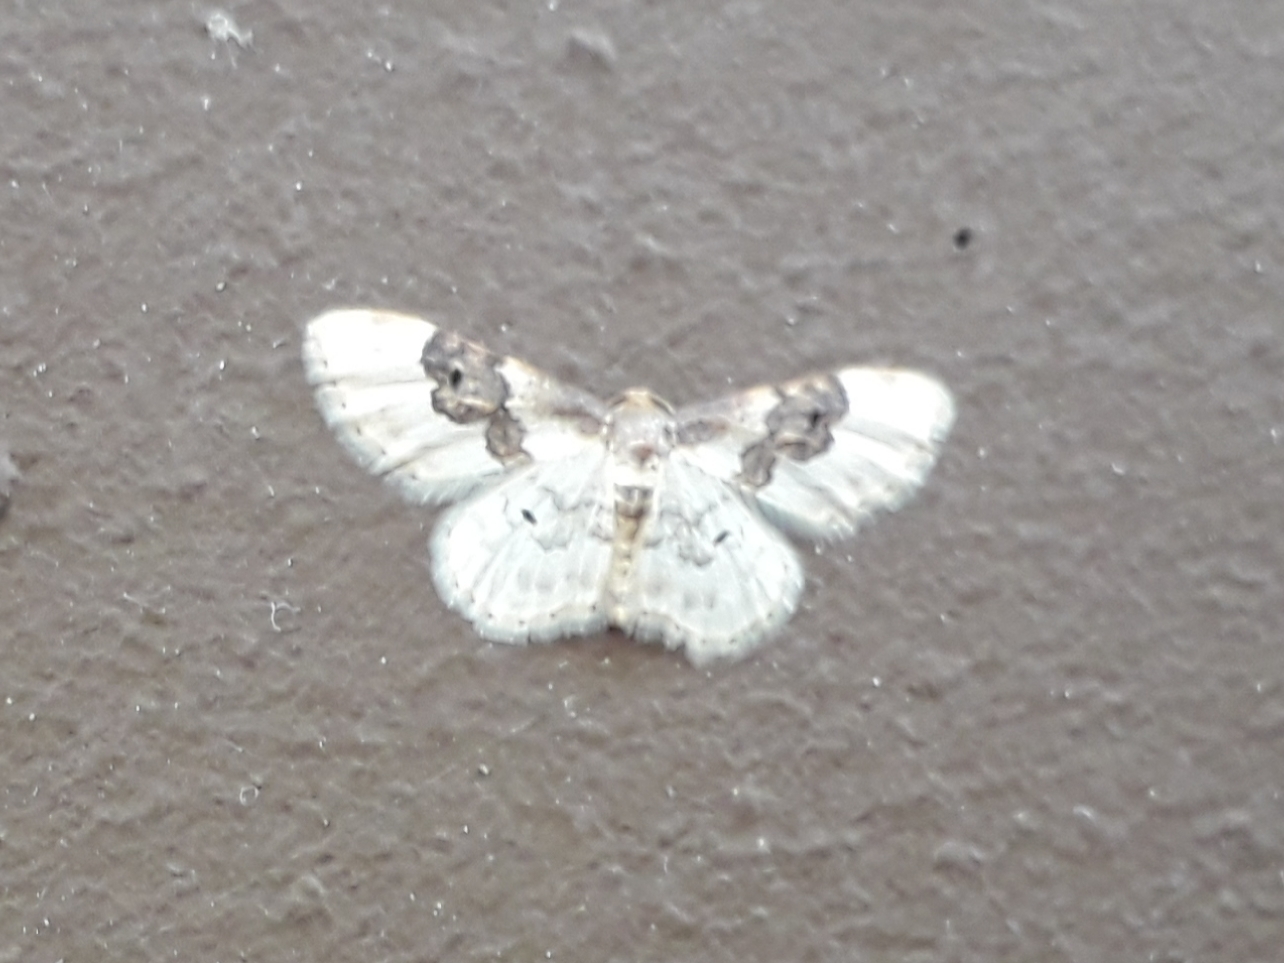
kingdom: Animalia
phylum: Arthropoda
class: Insecta
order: Lepidoptera
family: Geometridae
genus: Idaea
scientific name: Idaea rusticata
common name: Least carpet
